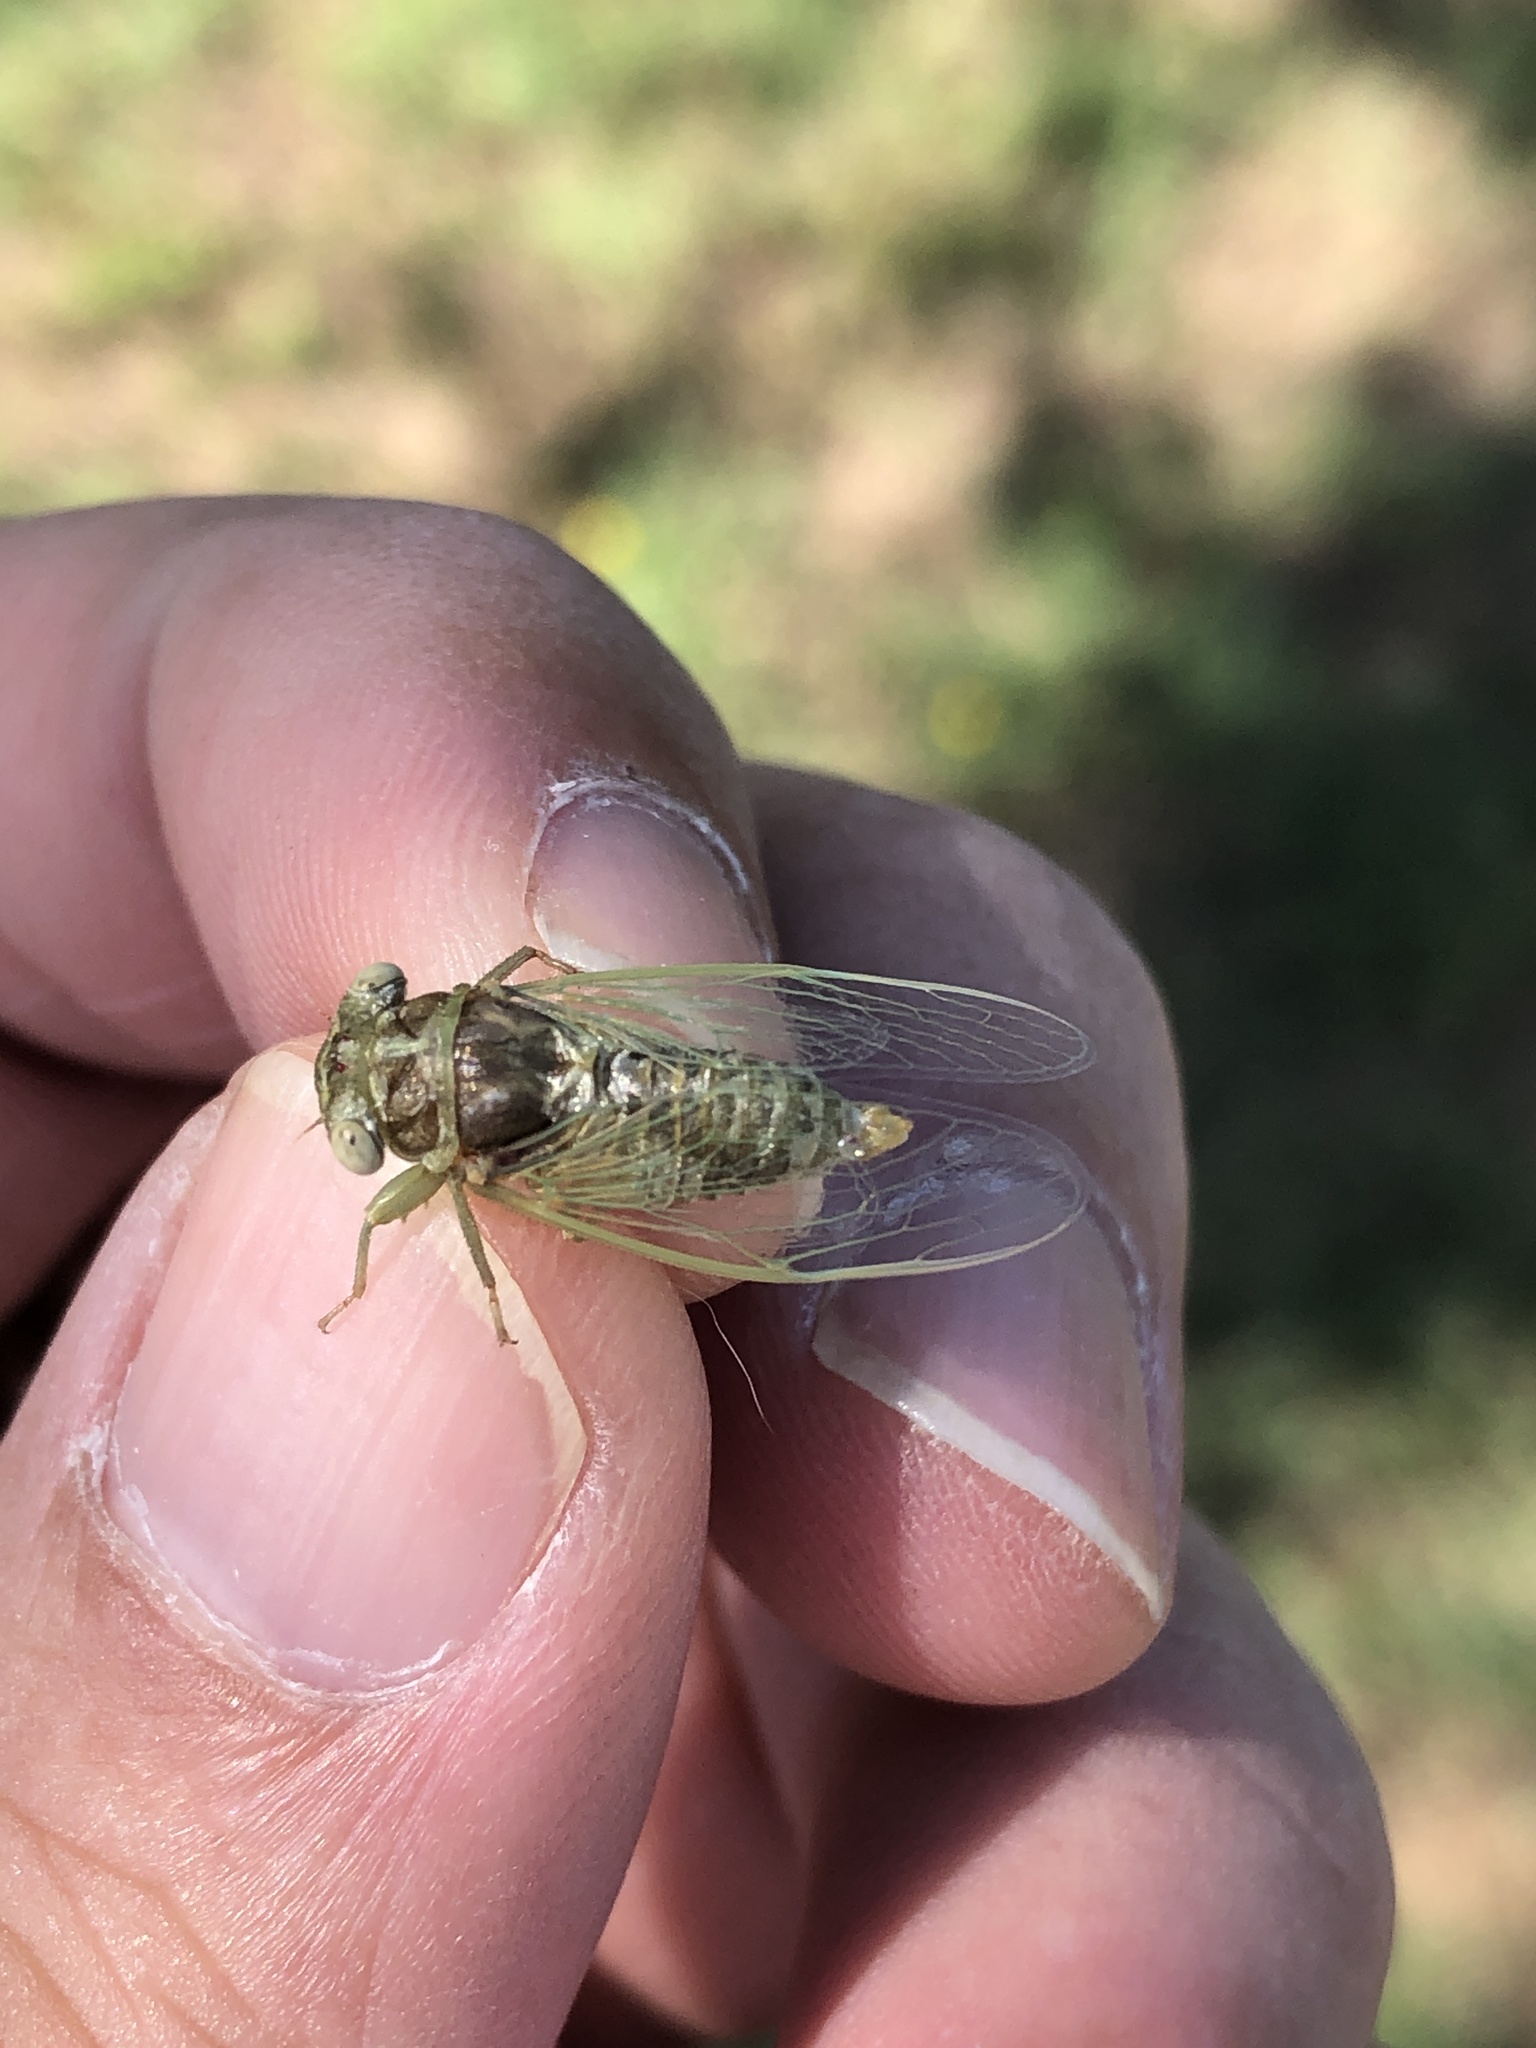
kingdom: Animalia
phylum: Arthropoda
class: Insecta
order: Hemiptera
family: Cicadidae
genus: Pacarina
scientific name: Pacarina puella
